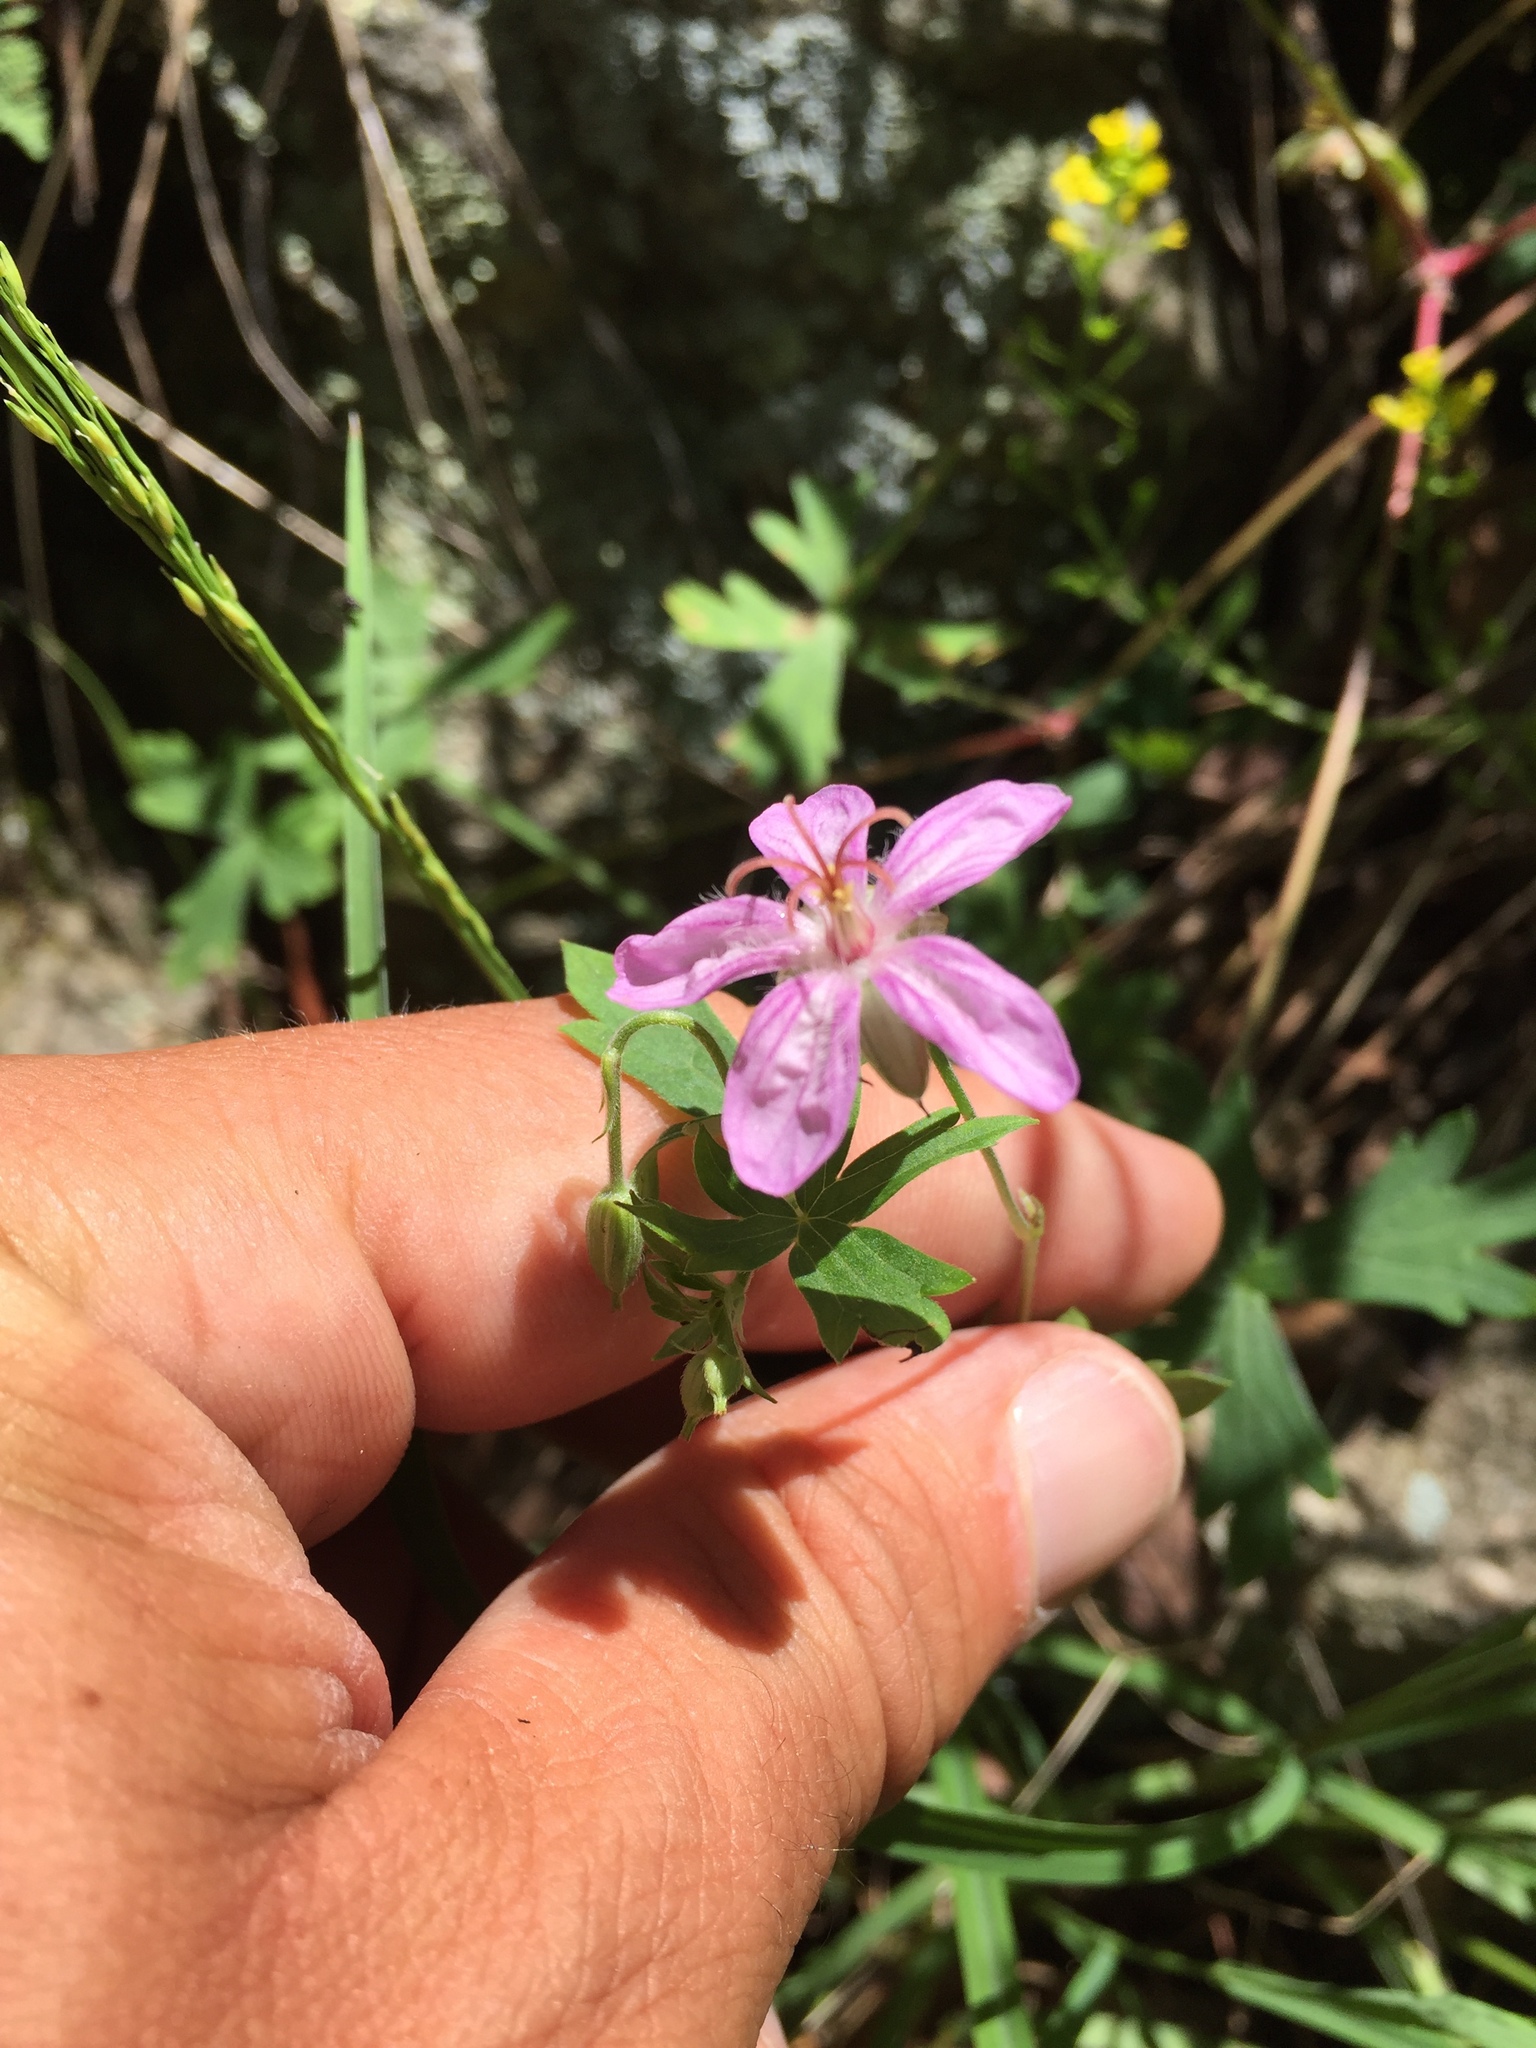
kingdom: Plantae
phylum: Tracheophyta
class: Magnoliopsida
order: Geraniales
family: Geraniaceae
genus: Geranium
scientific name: Geranium caespitosum
